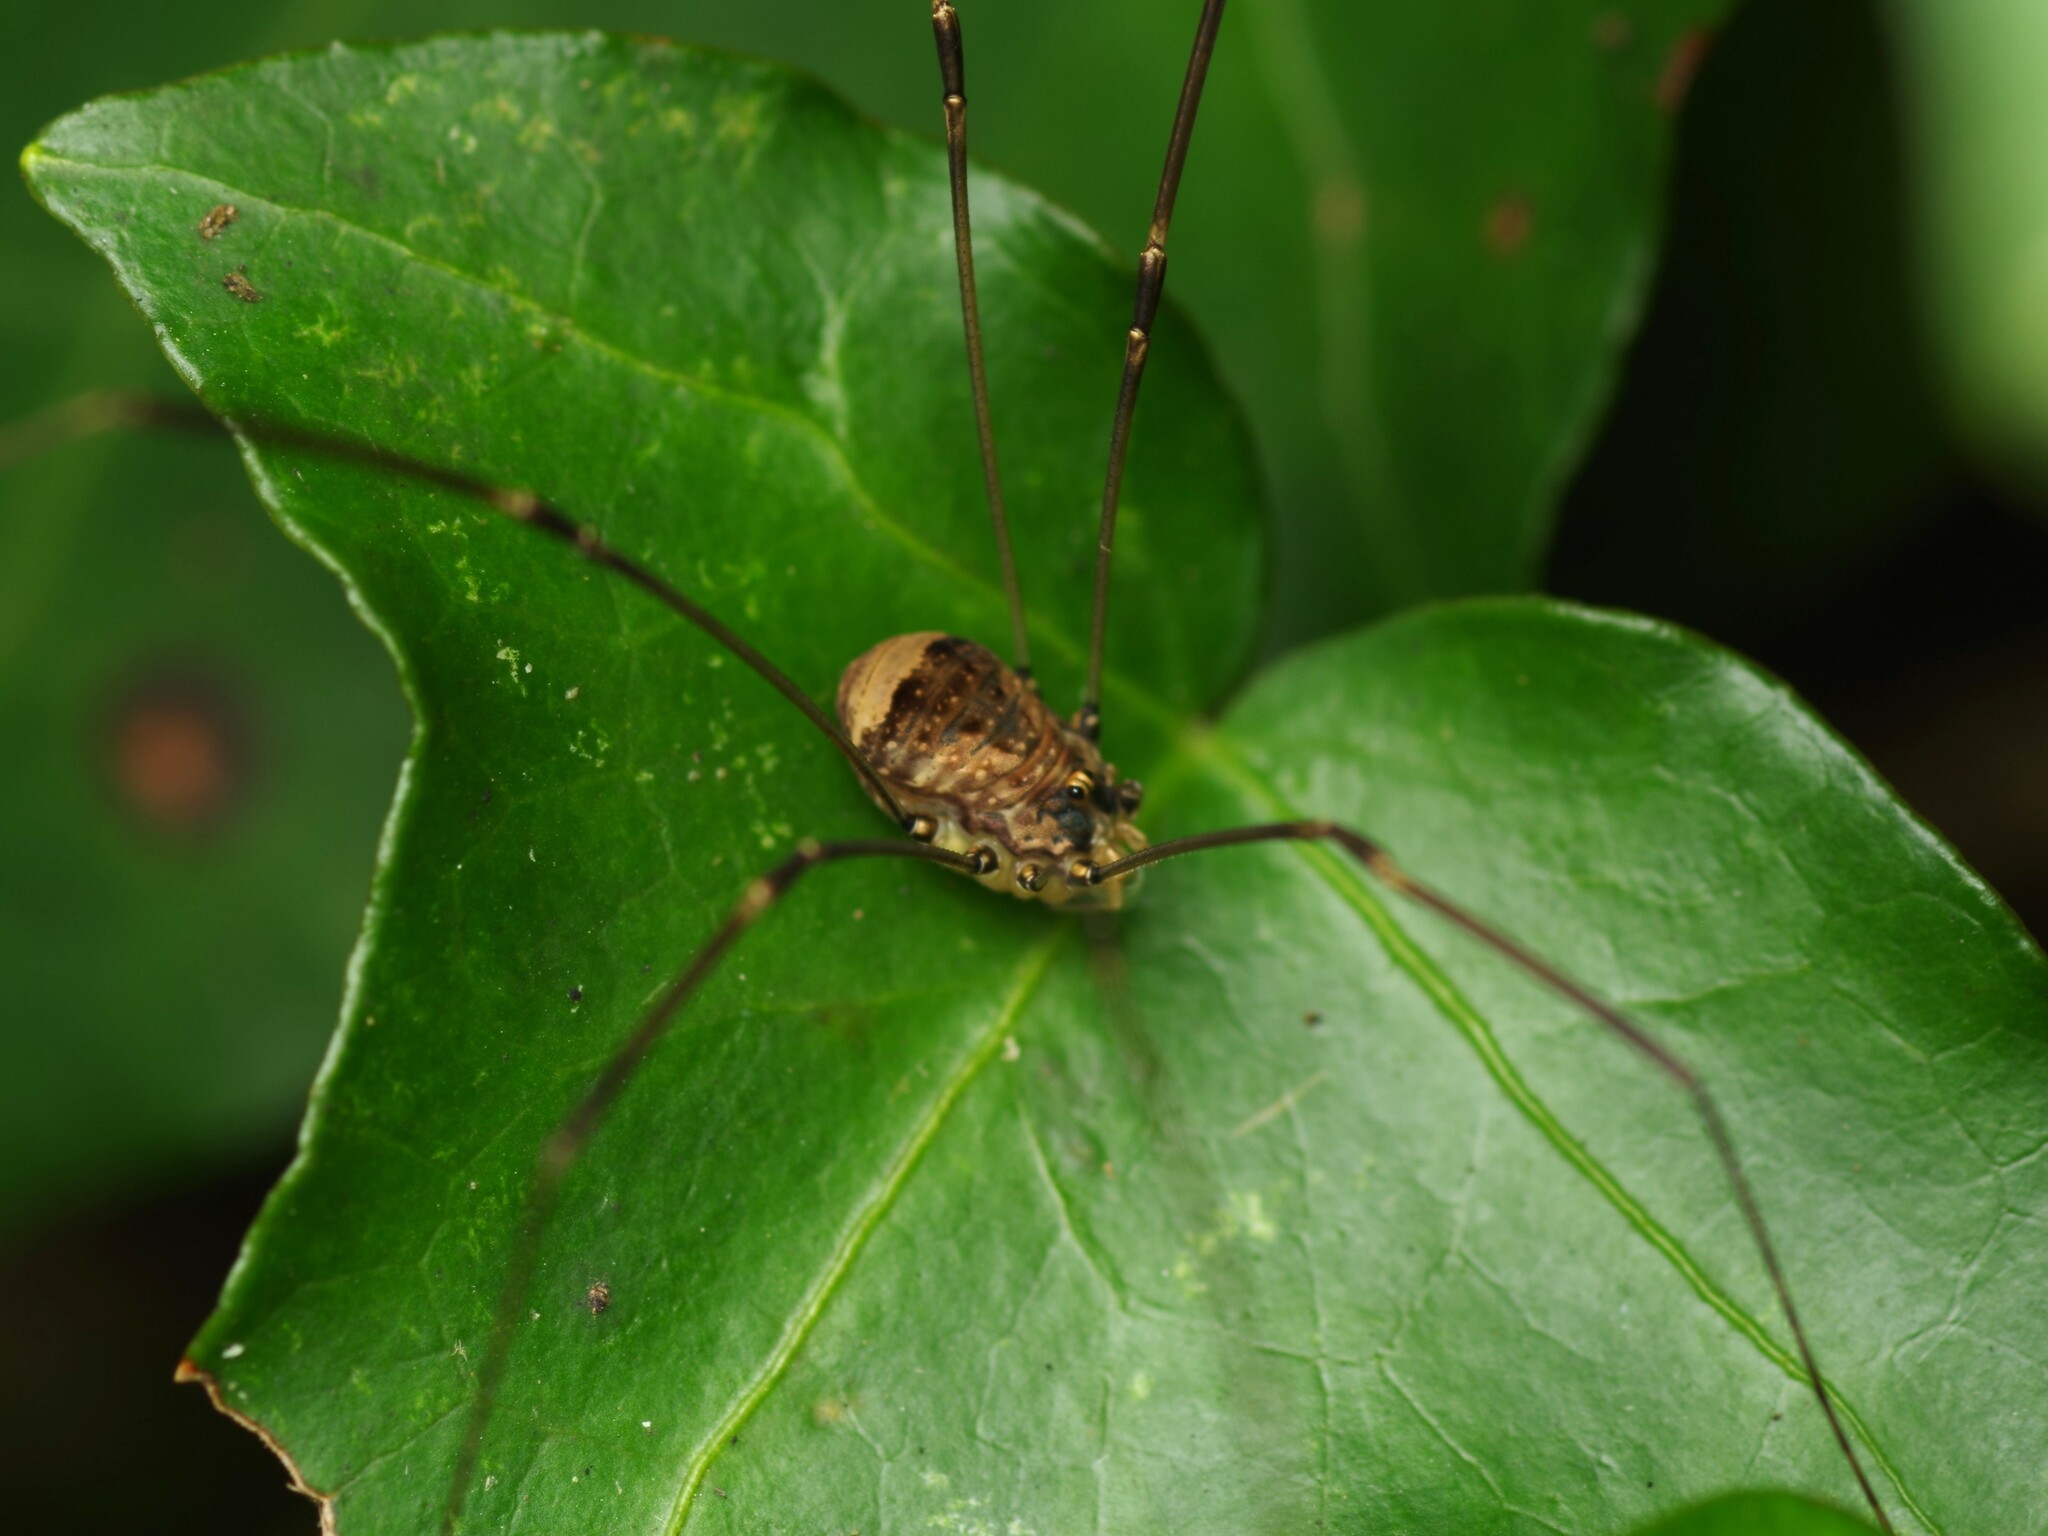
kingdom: Animalia
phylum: Arthropoda
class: Arachnida
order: Opiliones
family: Sclerosomatidae
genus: Leiobunum
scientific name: Leiobunum blackwalli
